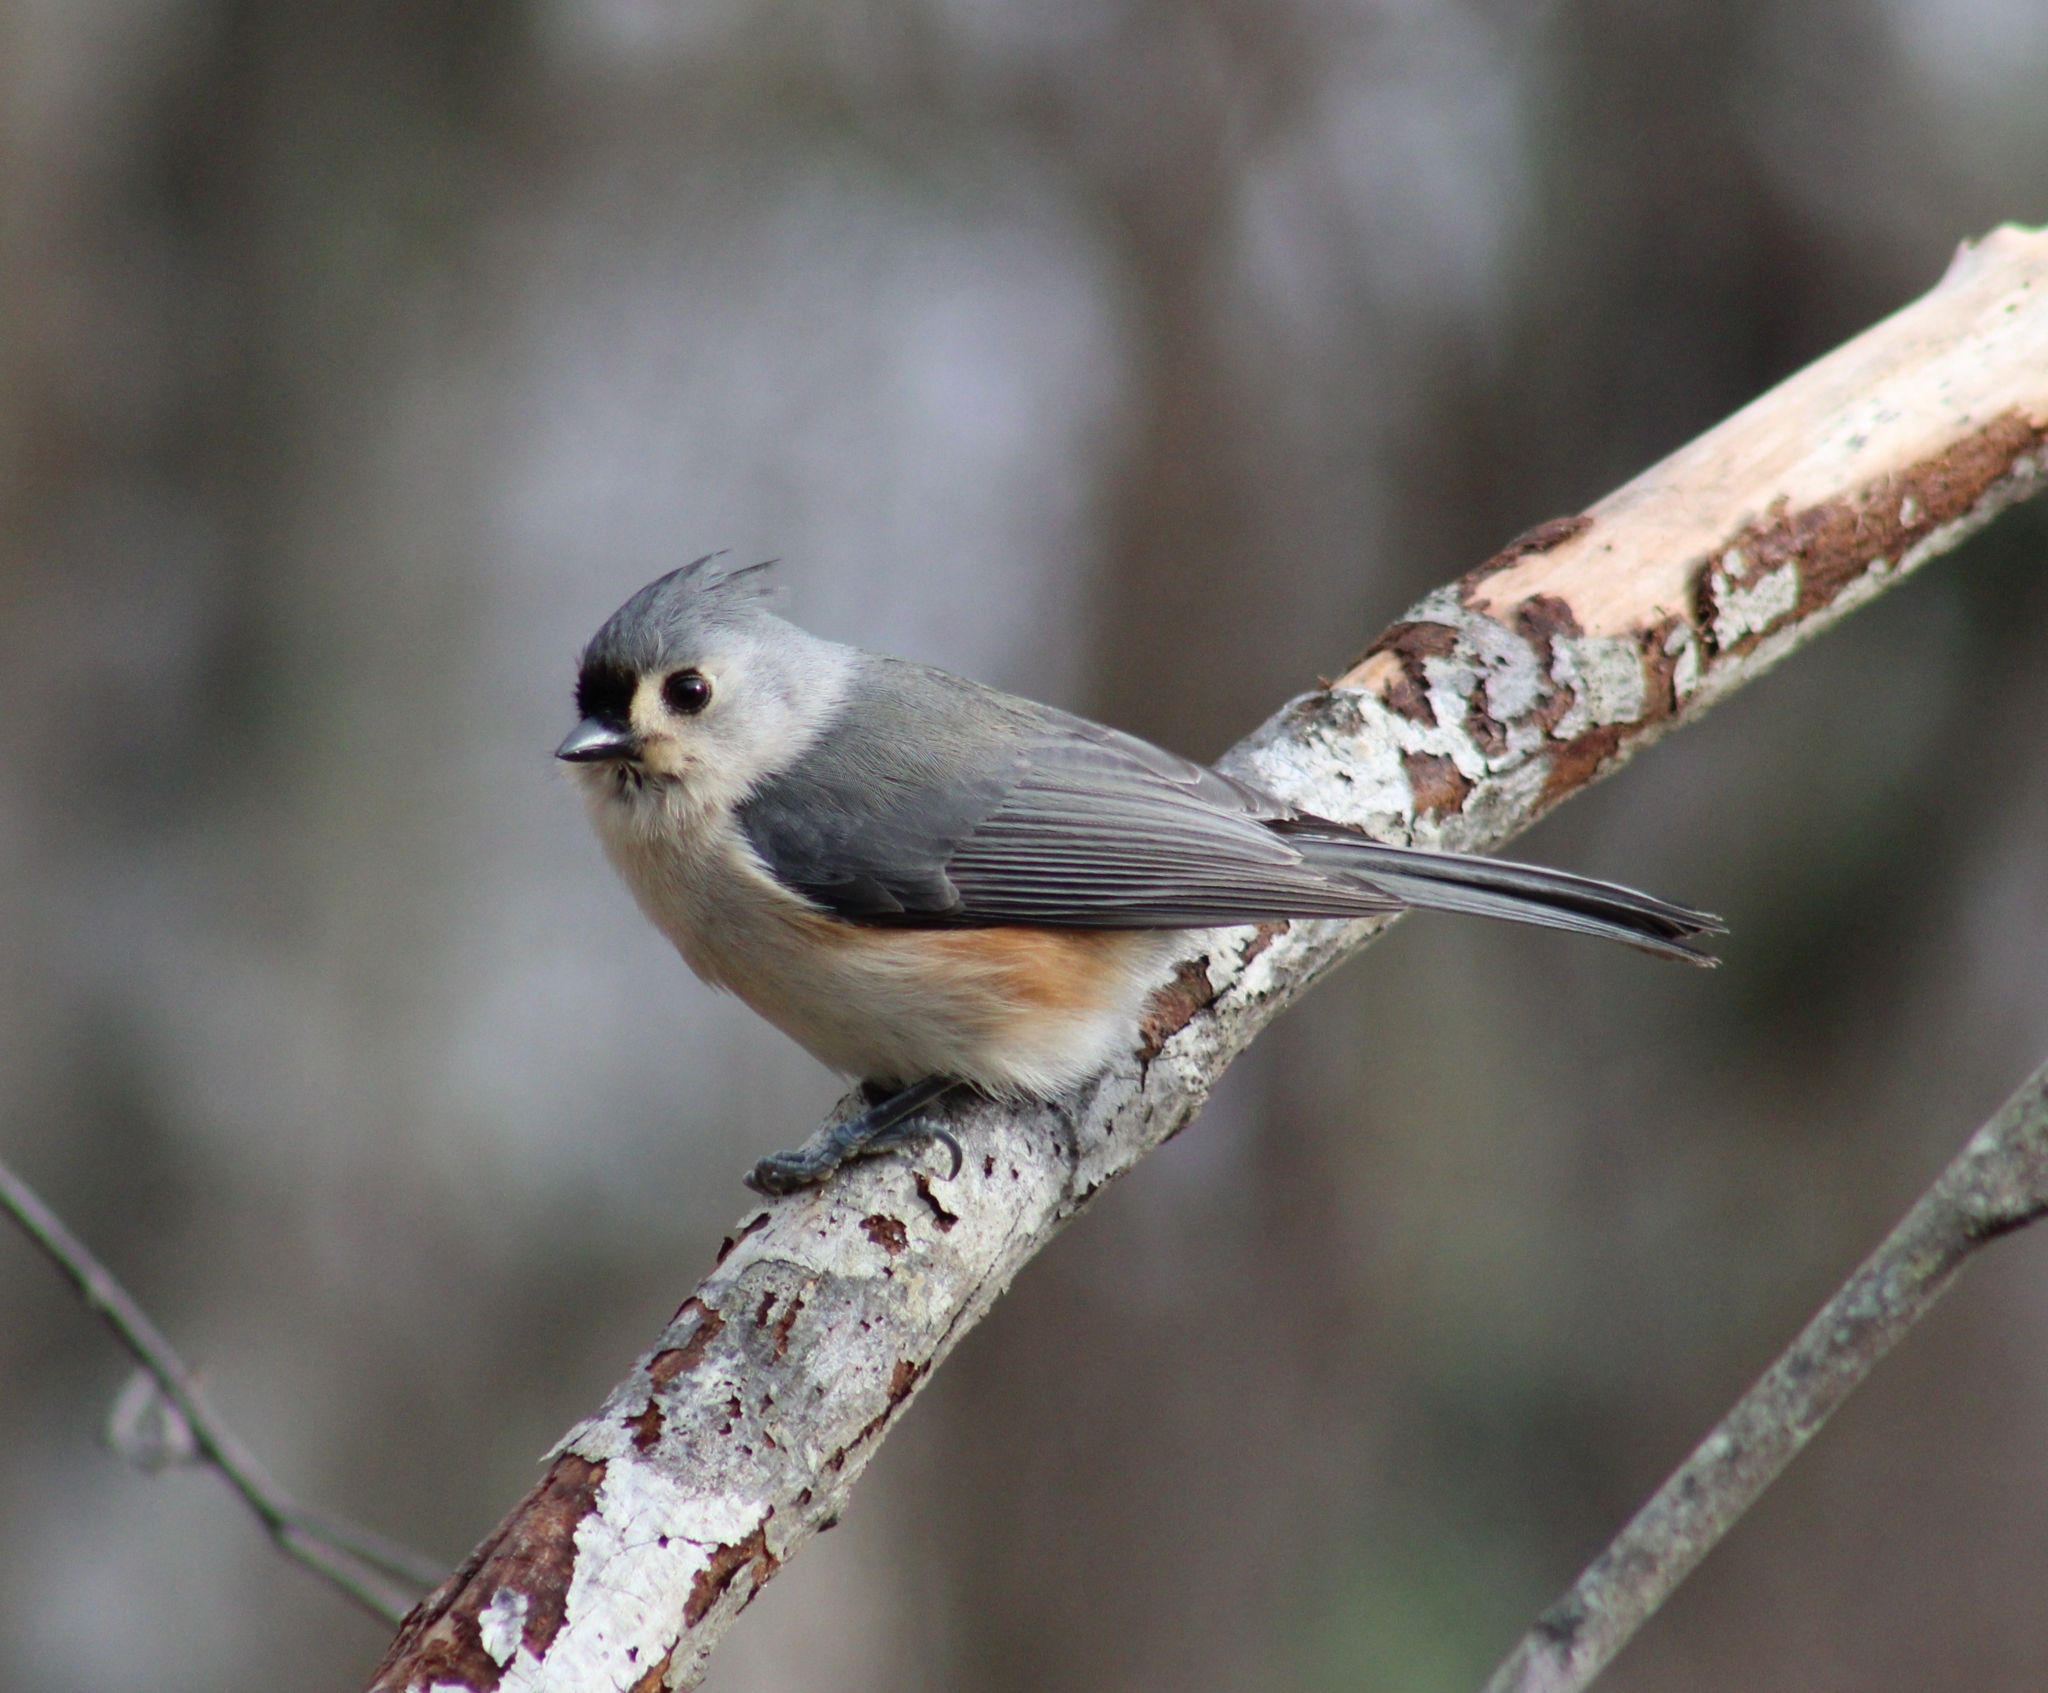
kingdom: Animalia
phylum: Chordata
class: Aves
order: Passeriformes
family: Paridae
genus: Baeolophus
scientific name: Baeolophus bicolor
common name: Tufted titmouse
